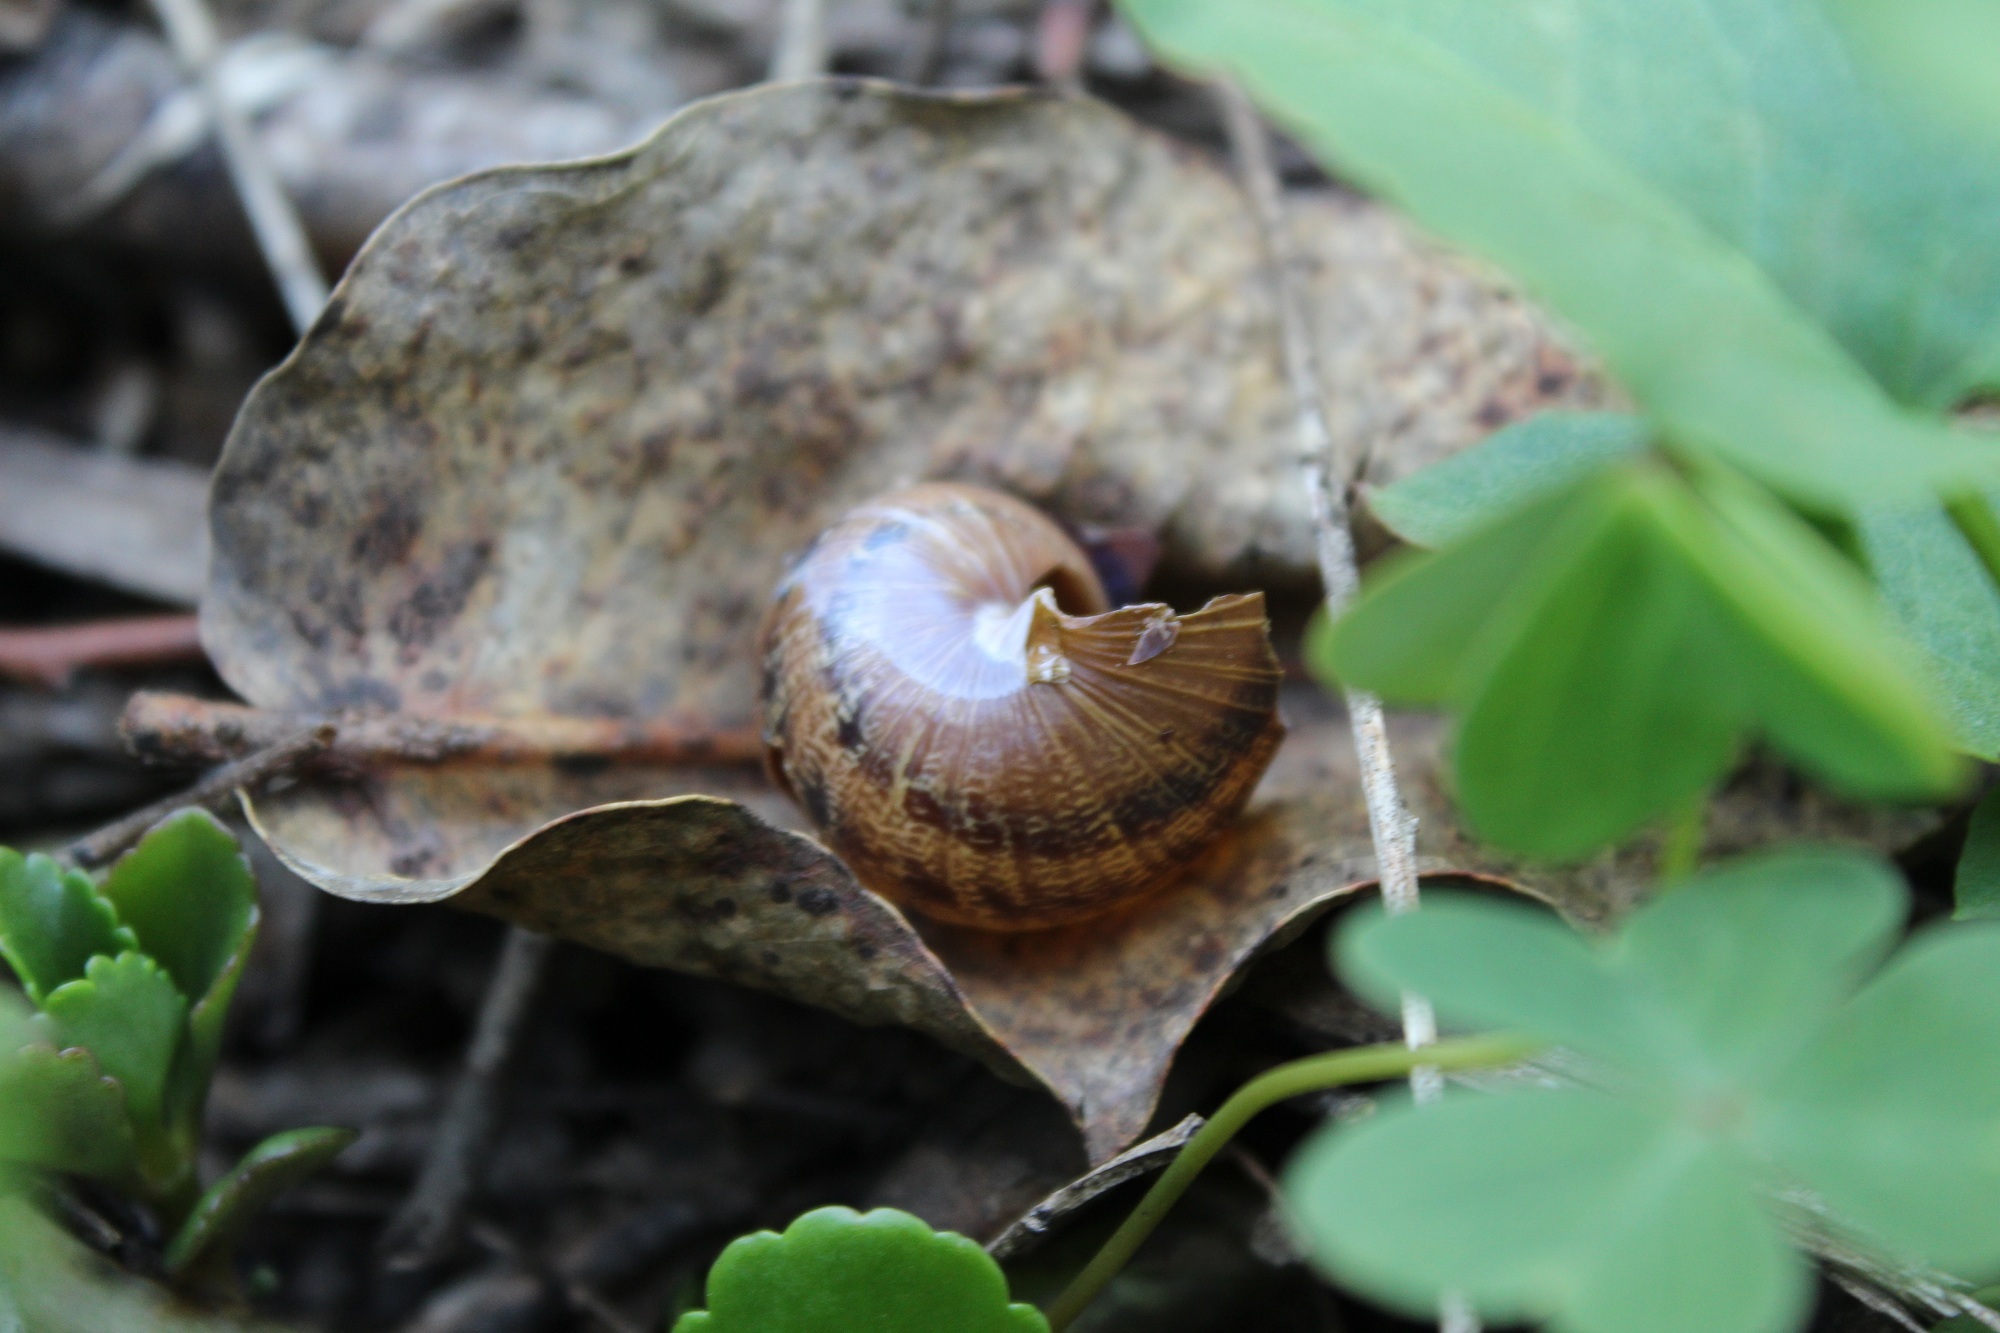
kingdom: Animalia
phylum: Mollusca
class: Gastropoda
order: Stylommatophora
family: Helicidae
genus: Cornu
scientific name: Cornu aspersum
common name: Brown garden snail
